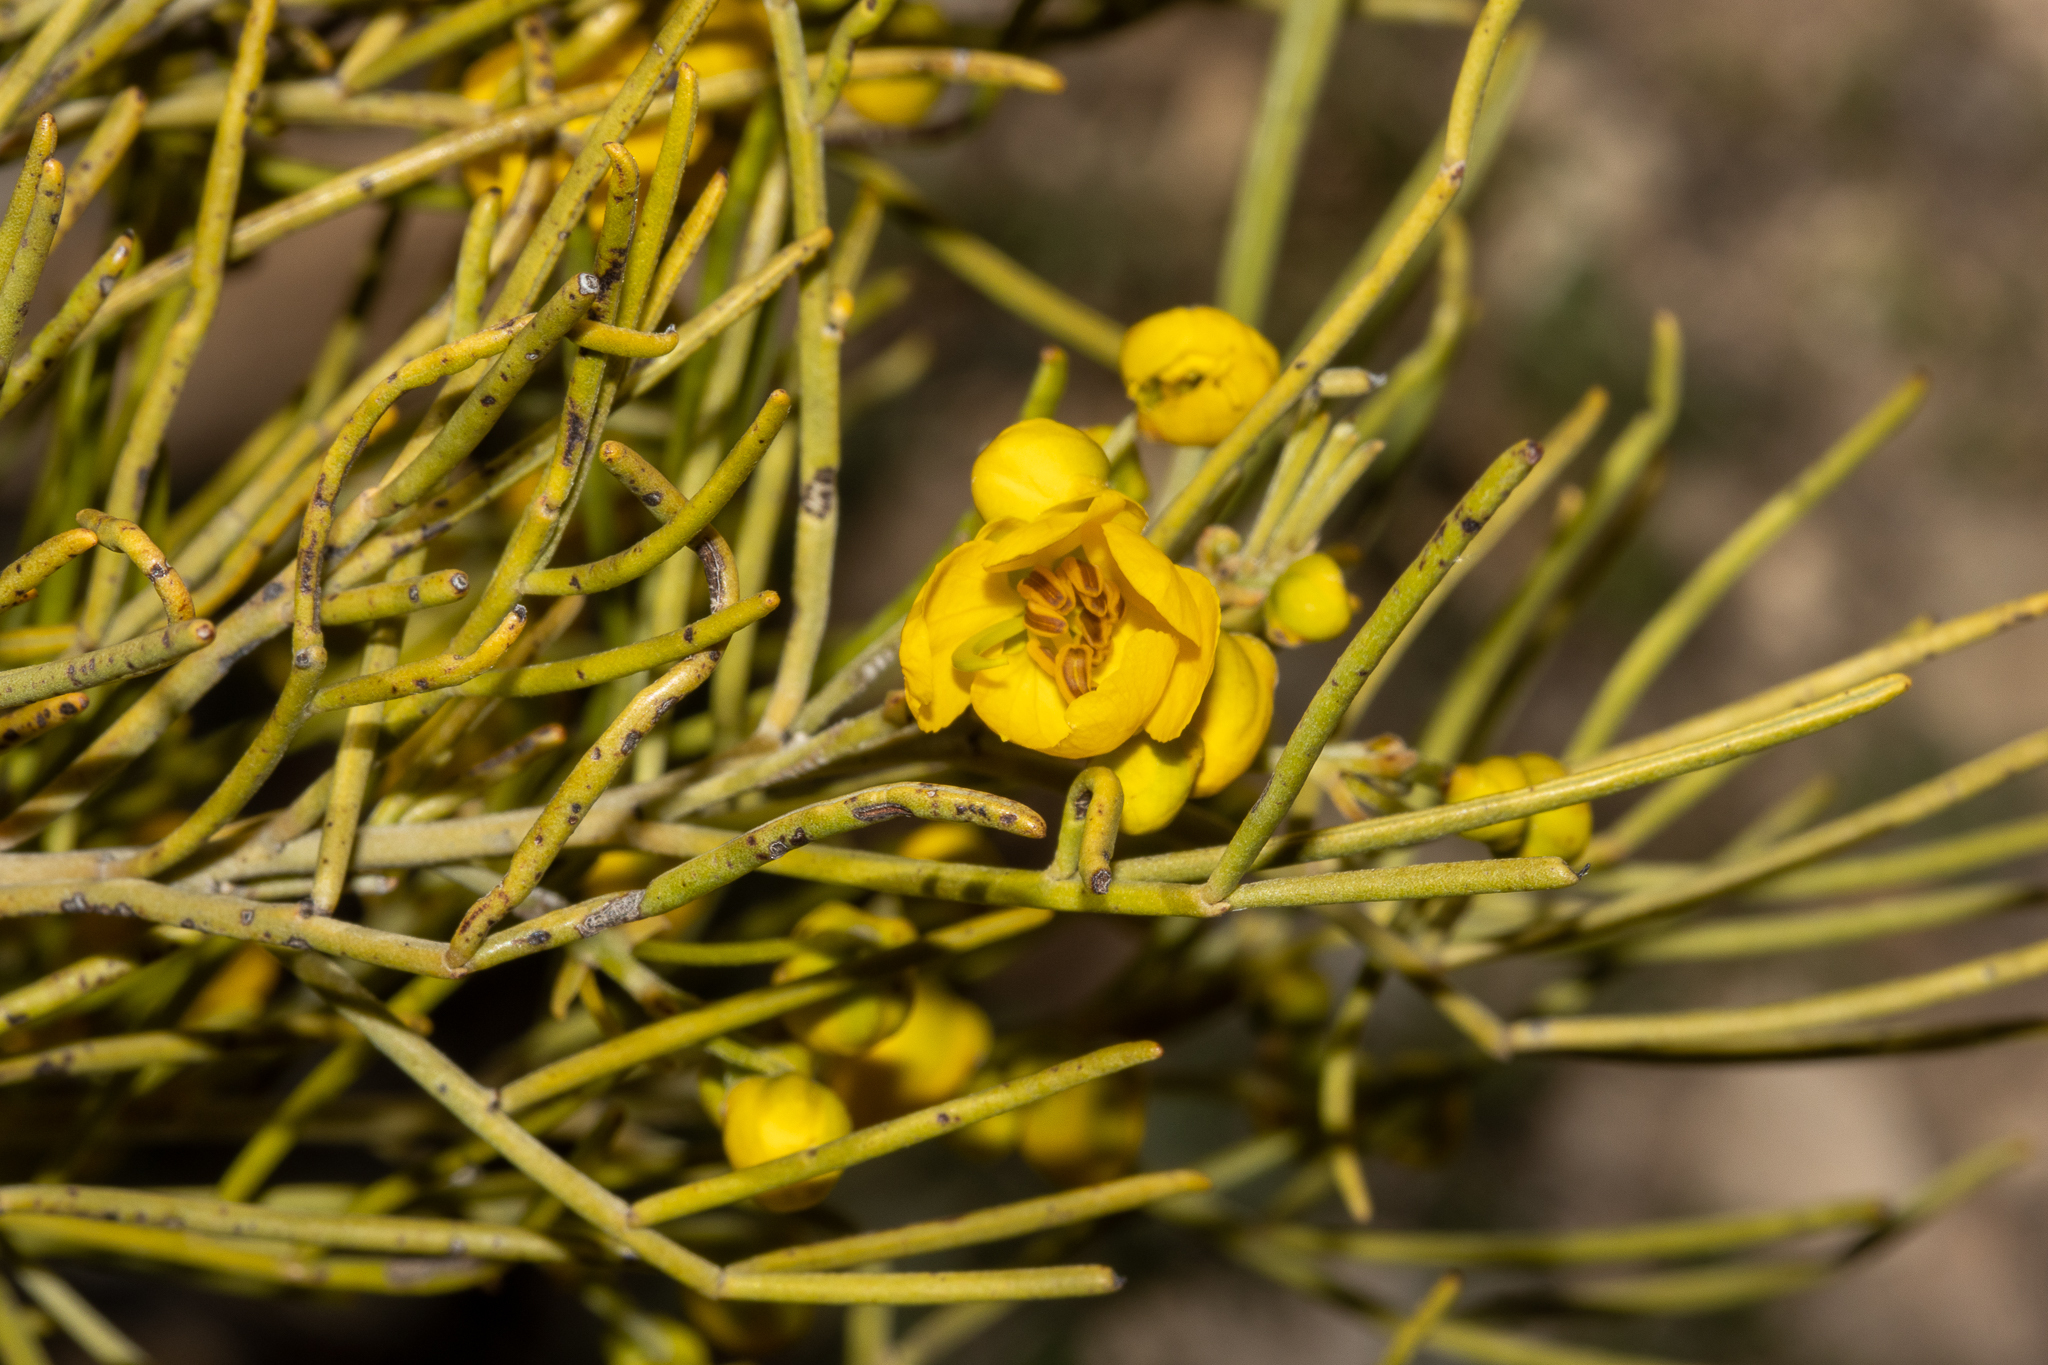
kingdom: Plantae
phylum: Tracheophyta
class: Magnoliopsida
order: Fabales
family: Fabaceae
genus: Senna
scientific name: Senna artemisioides
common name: Burnt-leaved acacia
